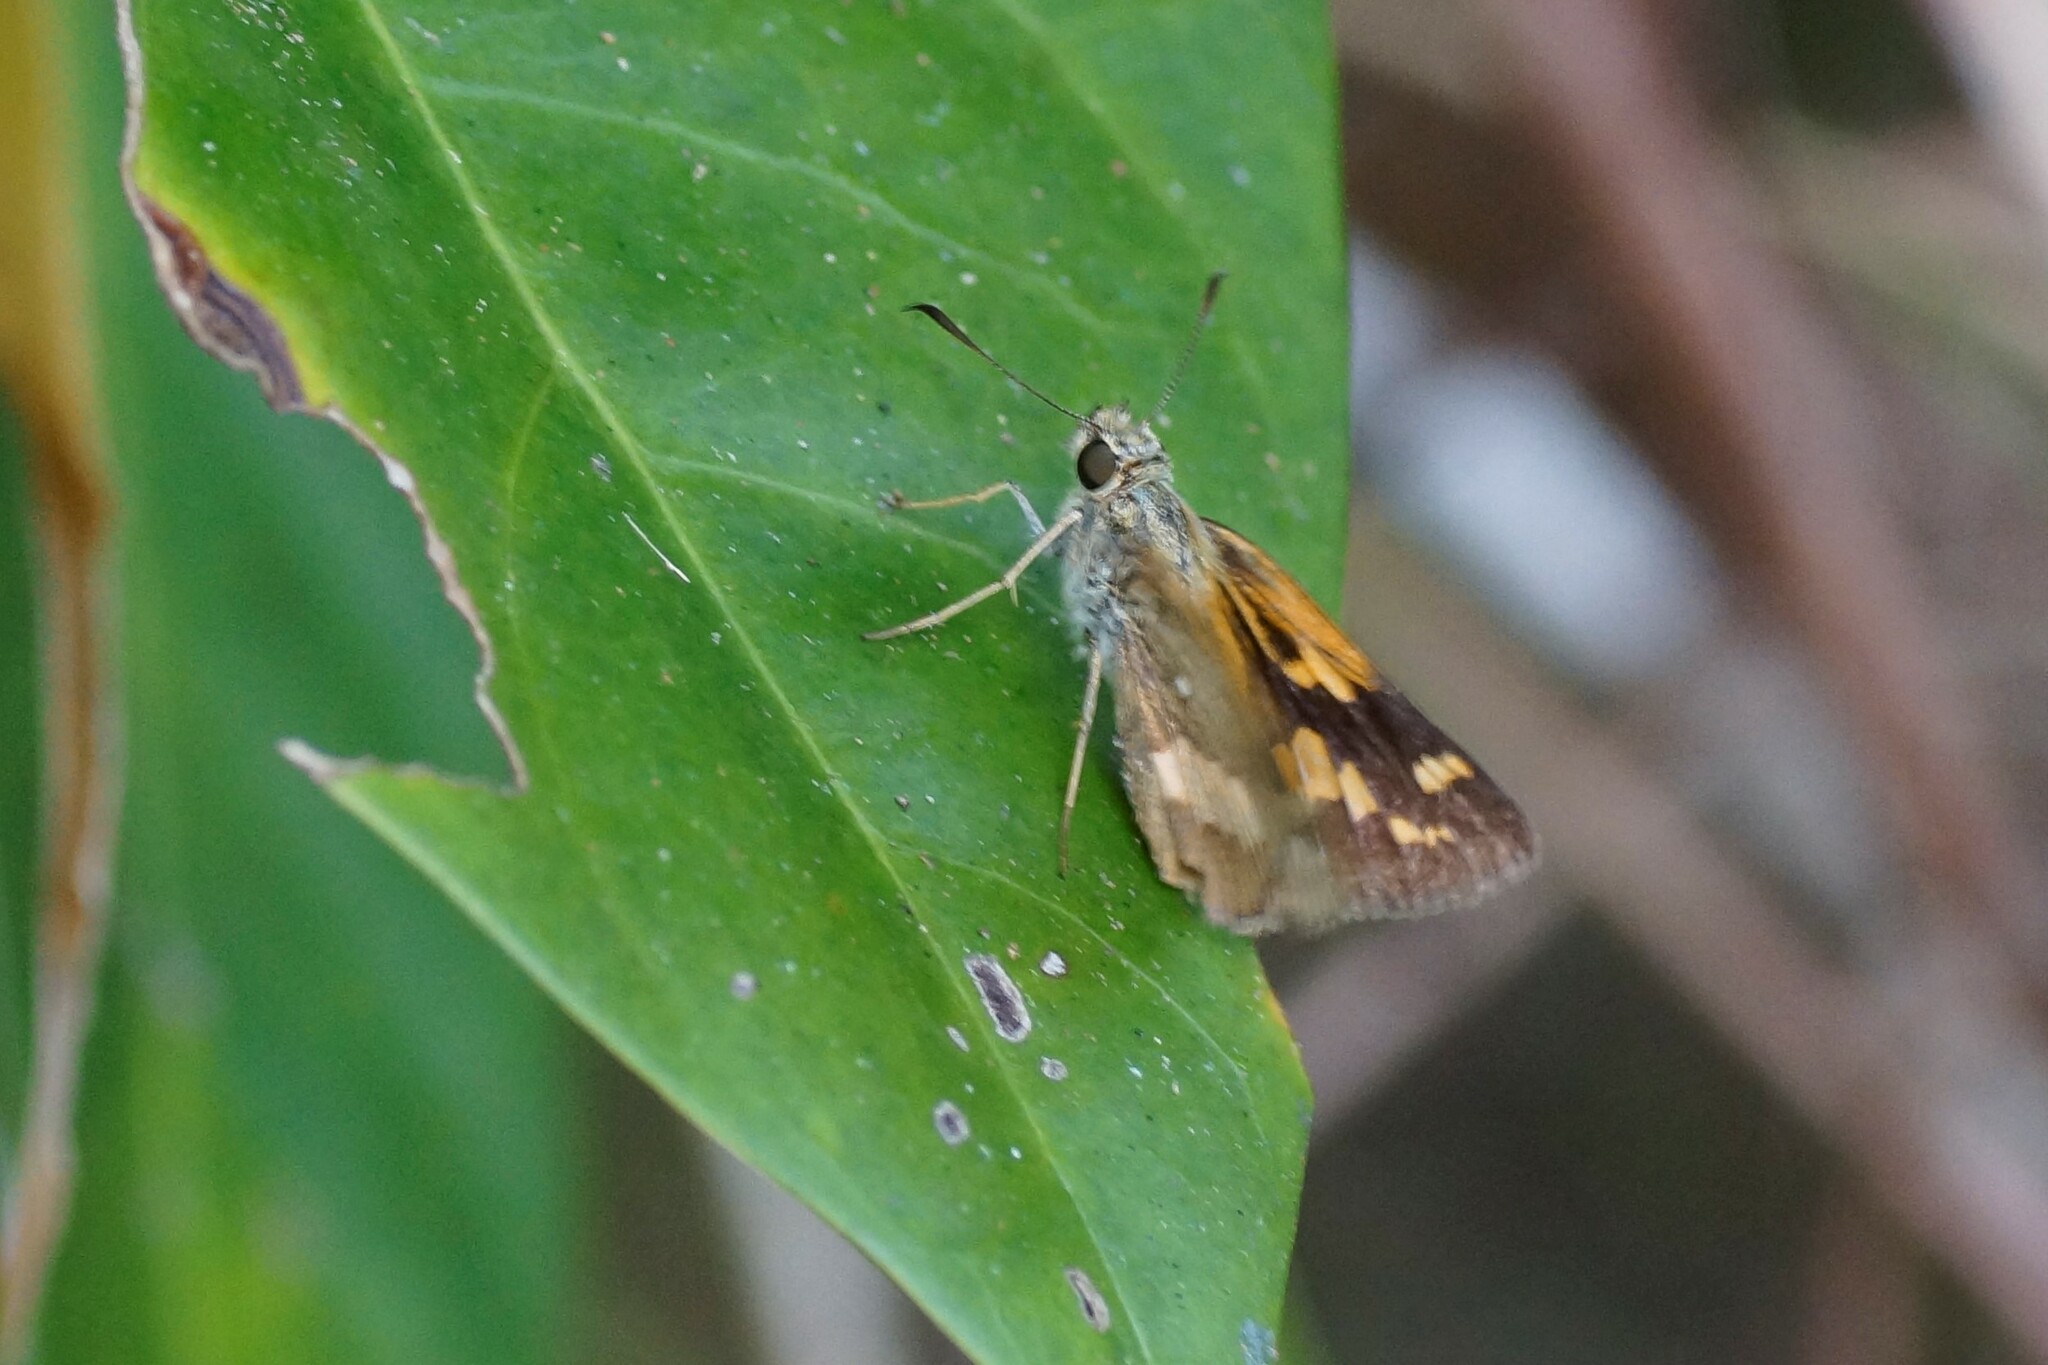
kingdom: Animalia
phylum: Arthropoda
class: Insecta
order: Lepidoptera
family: Hesperiidae
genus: Arrhenes
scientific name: Arrhenes dschilus
